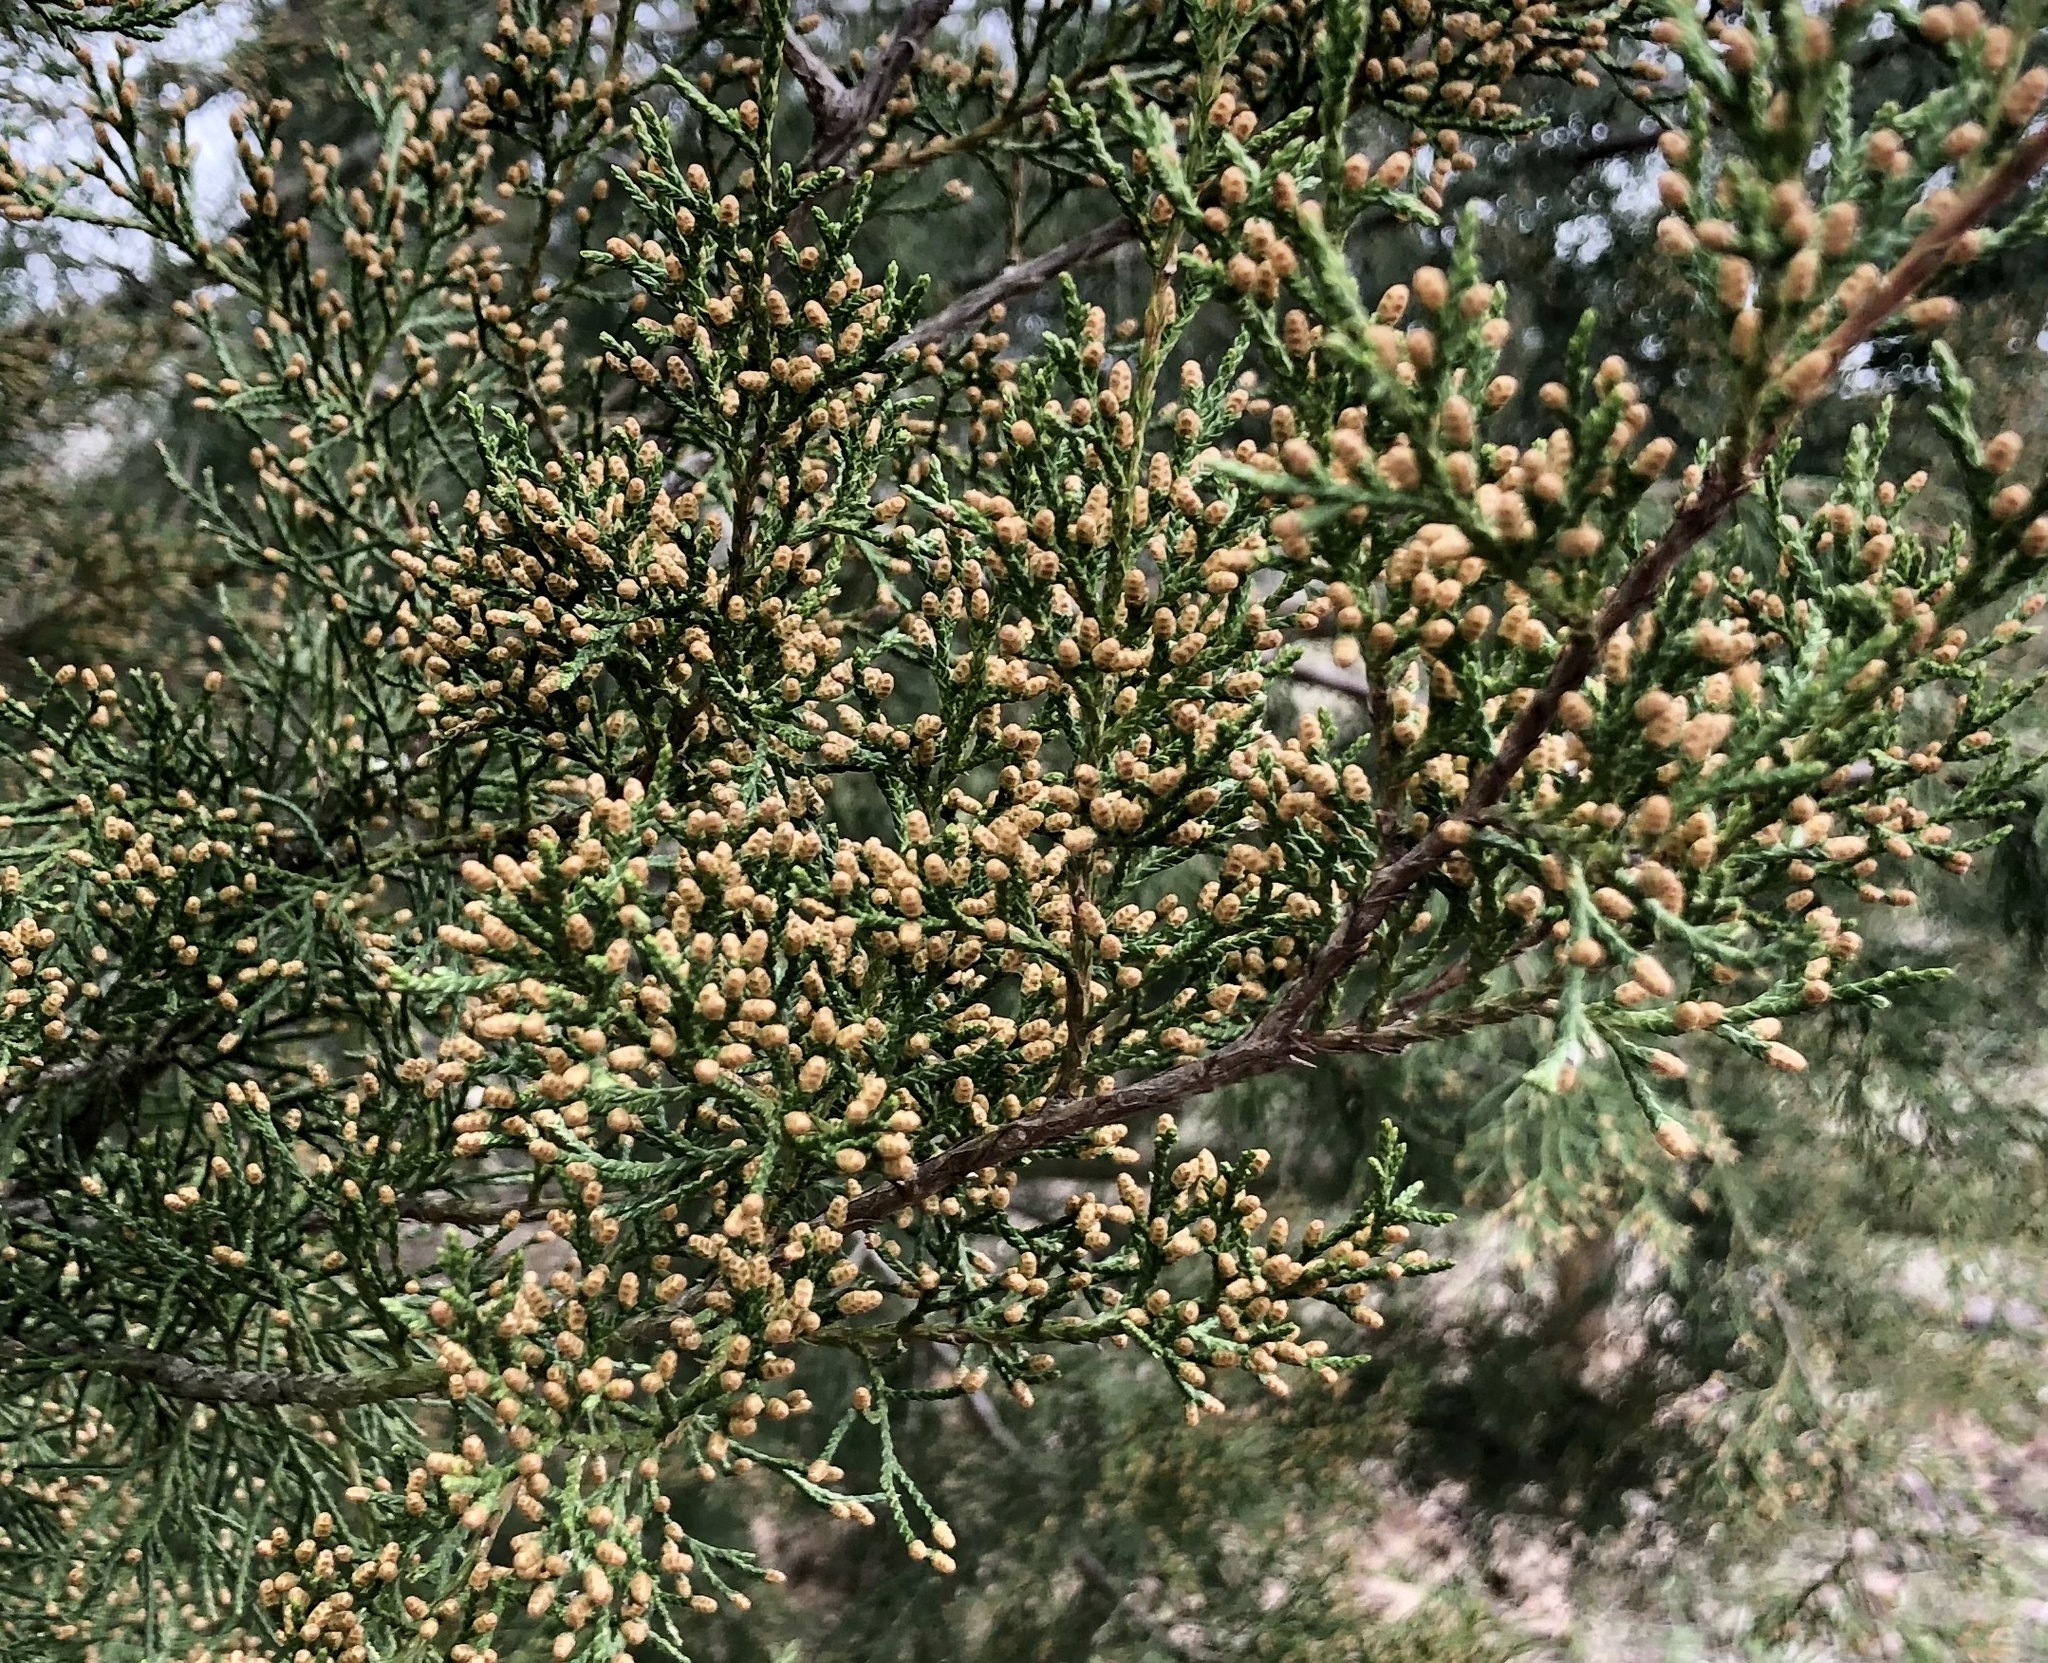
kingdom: Plantae
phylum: Tracheophyta
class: Pinopsida
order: Pinales
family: Cupressaceae
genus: Juniperus
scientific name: Juniperus virginiana
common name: Red juniper
